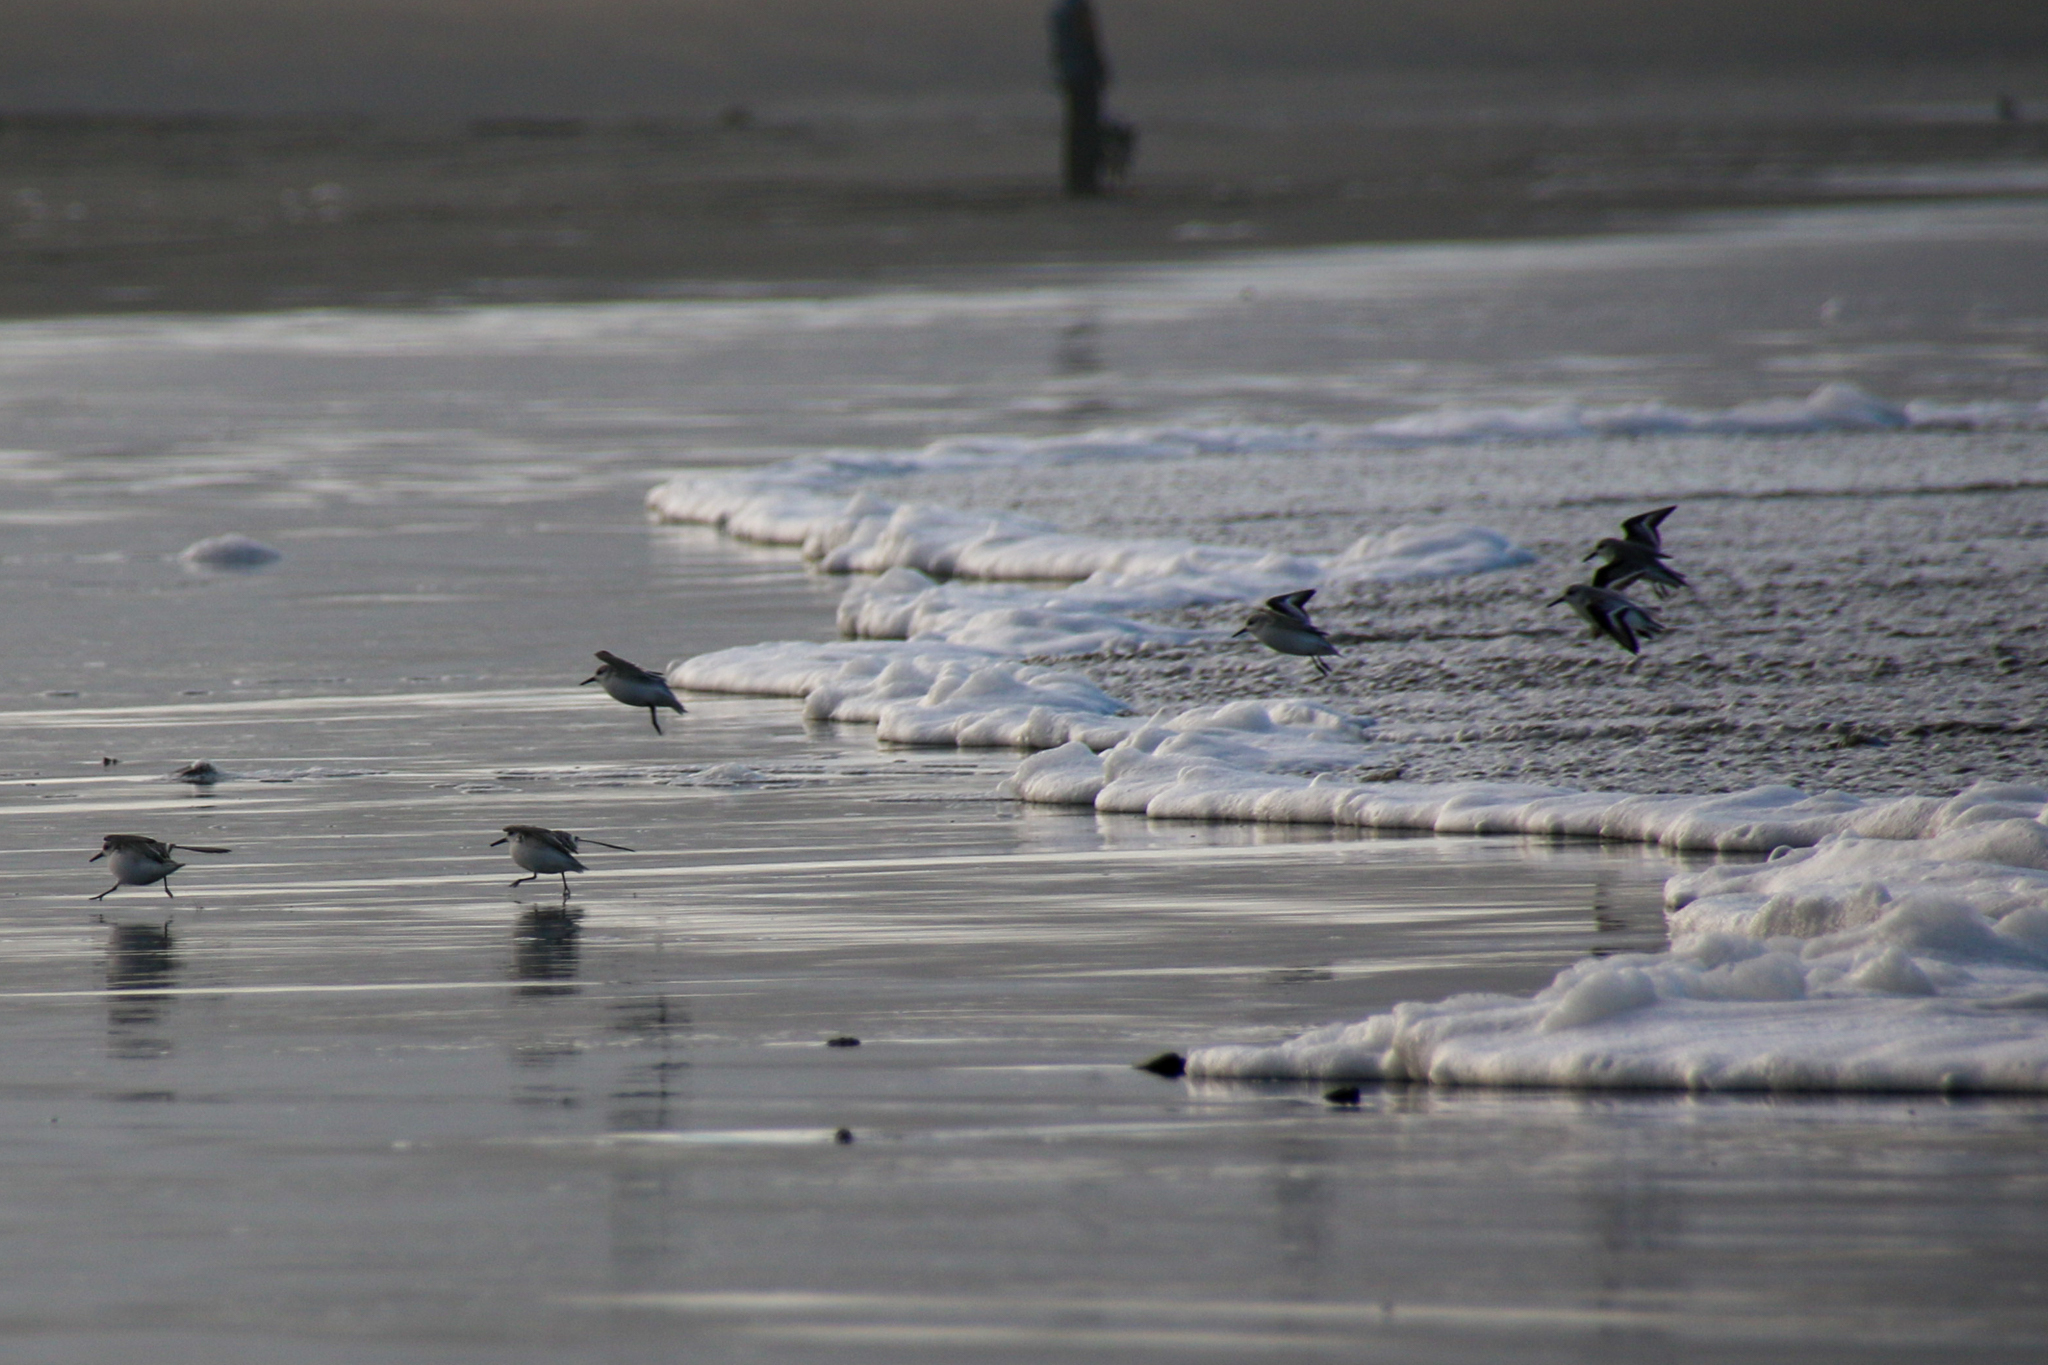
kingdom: Animalia
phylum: Chordata
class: Aves
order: Charadriiformes
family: Scolopacidae
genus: Calidris
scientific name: Calidris alba
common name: Sanderling
